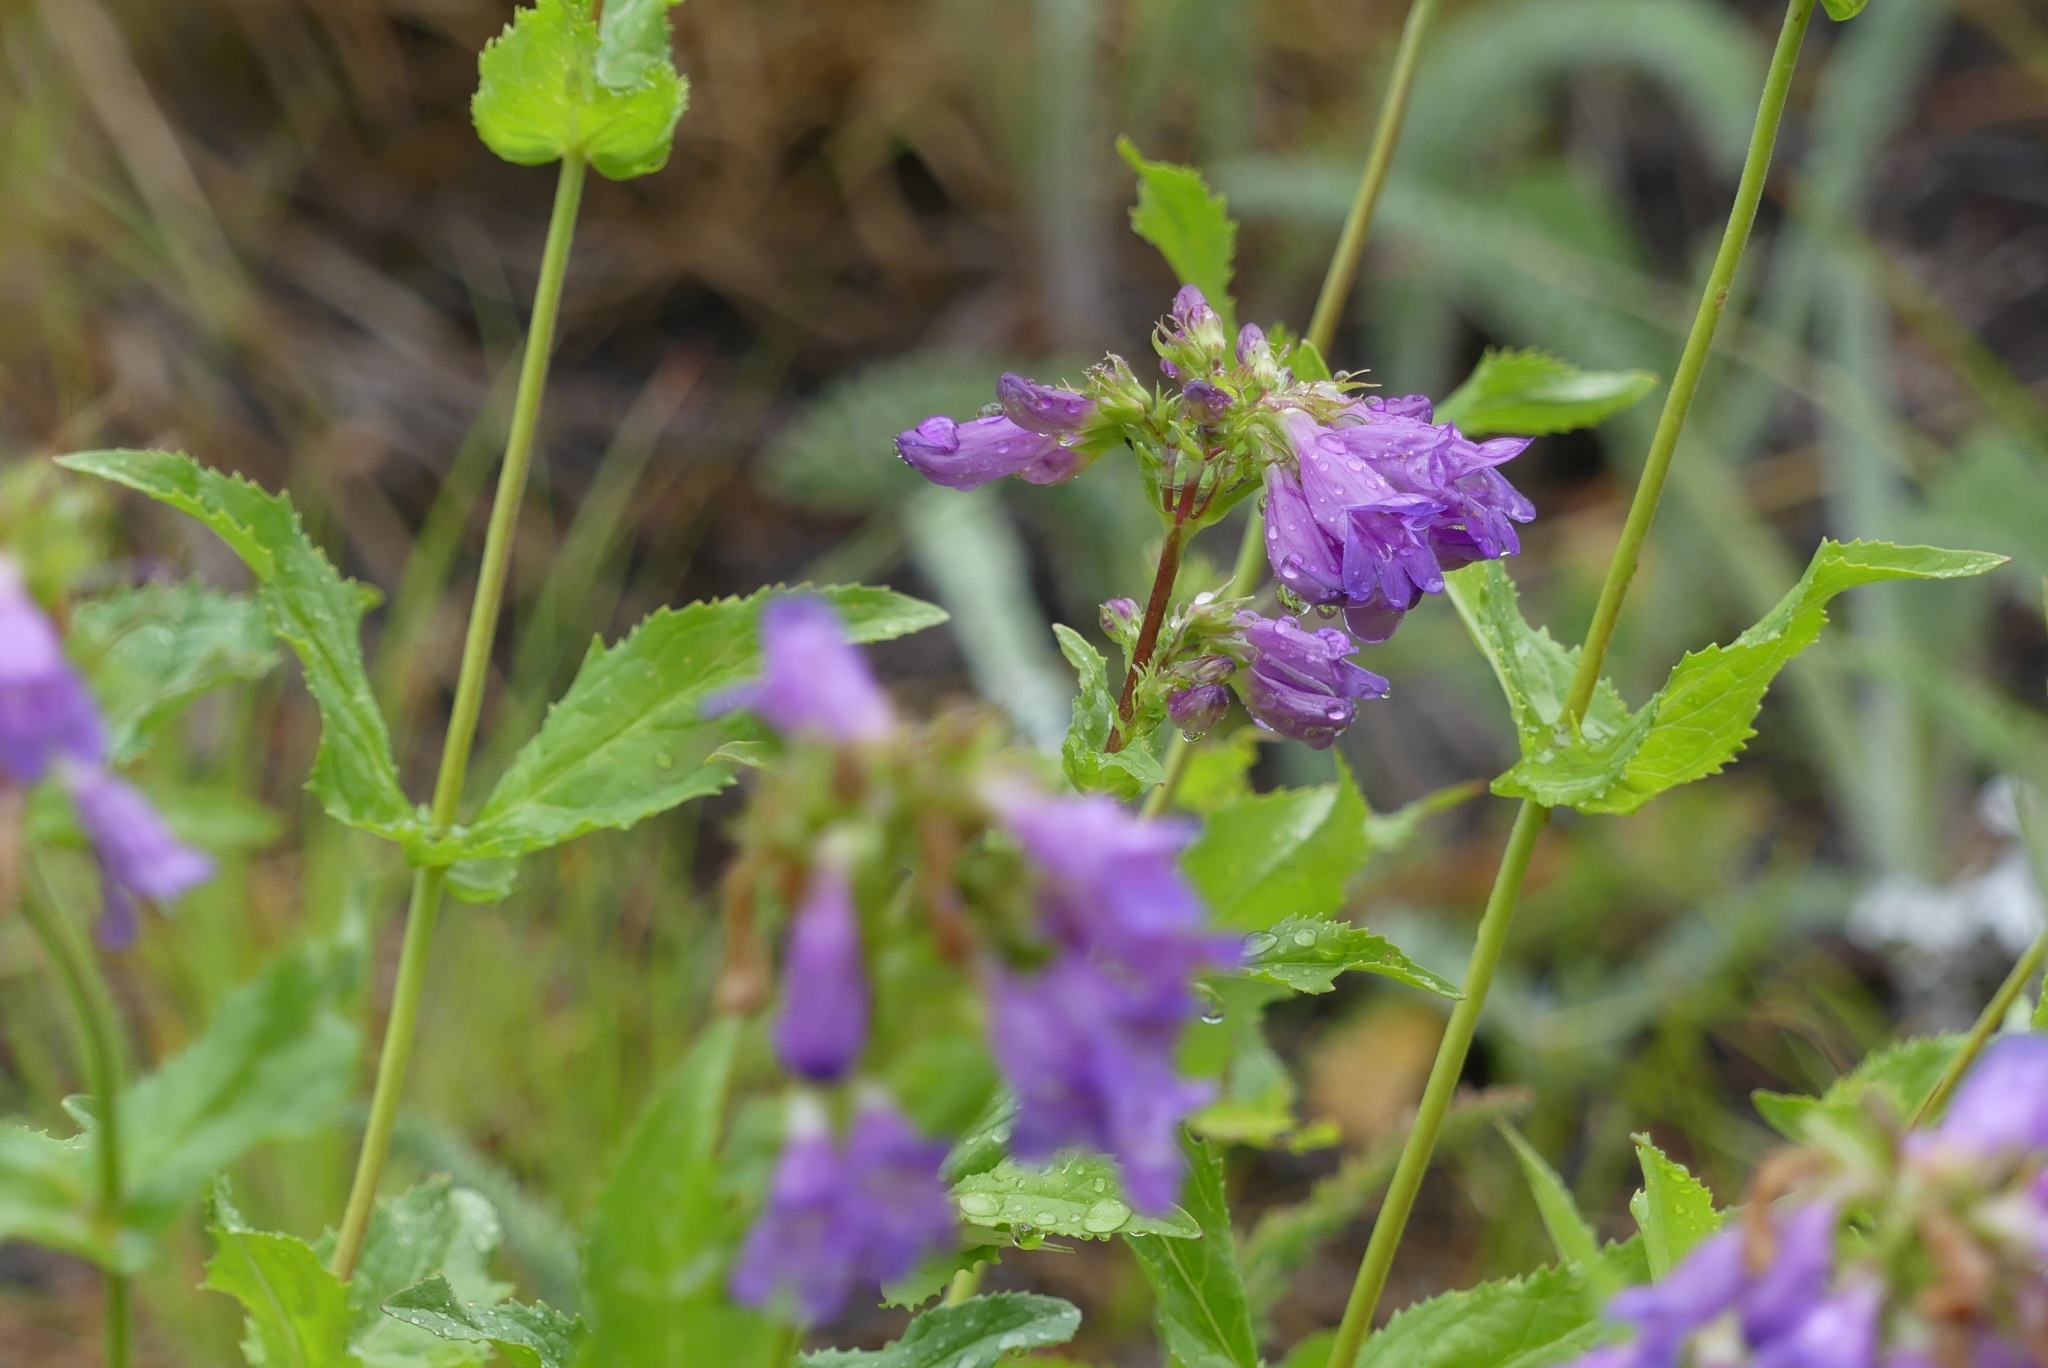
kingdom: Plantae
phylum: Tracheophyta
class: Magnoliopsida
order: Lamiales
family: Plantaginaceae
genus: Penstemon
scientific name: Penstemon serrulatus
